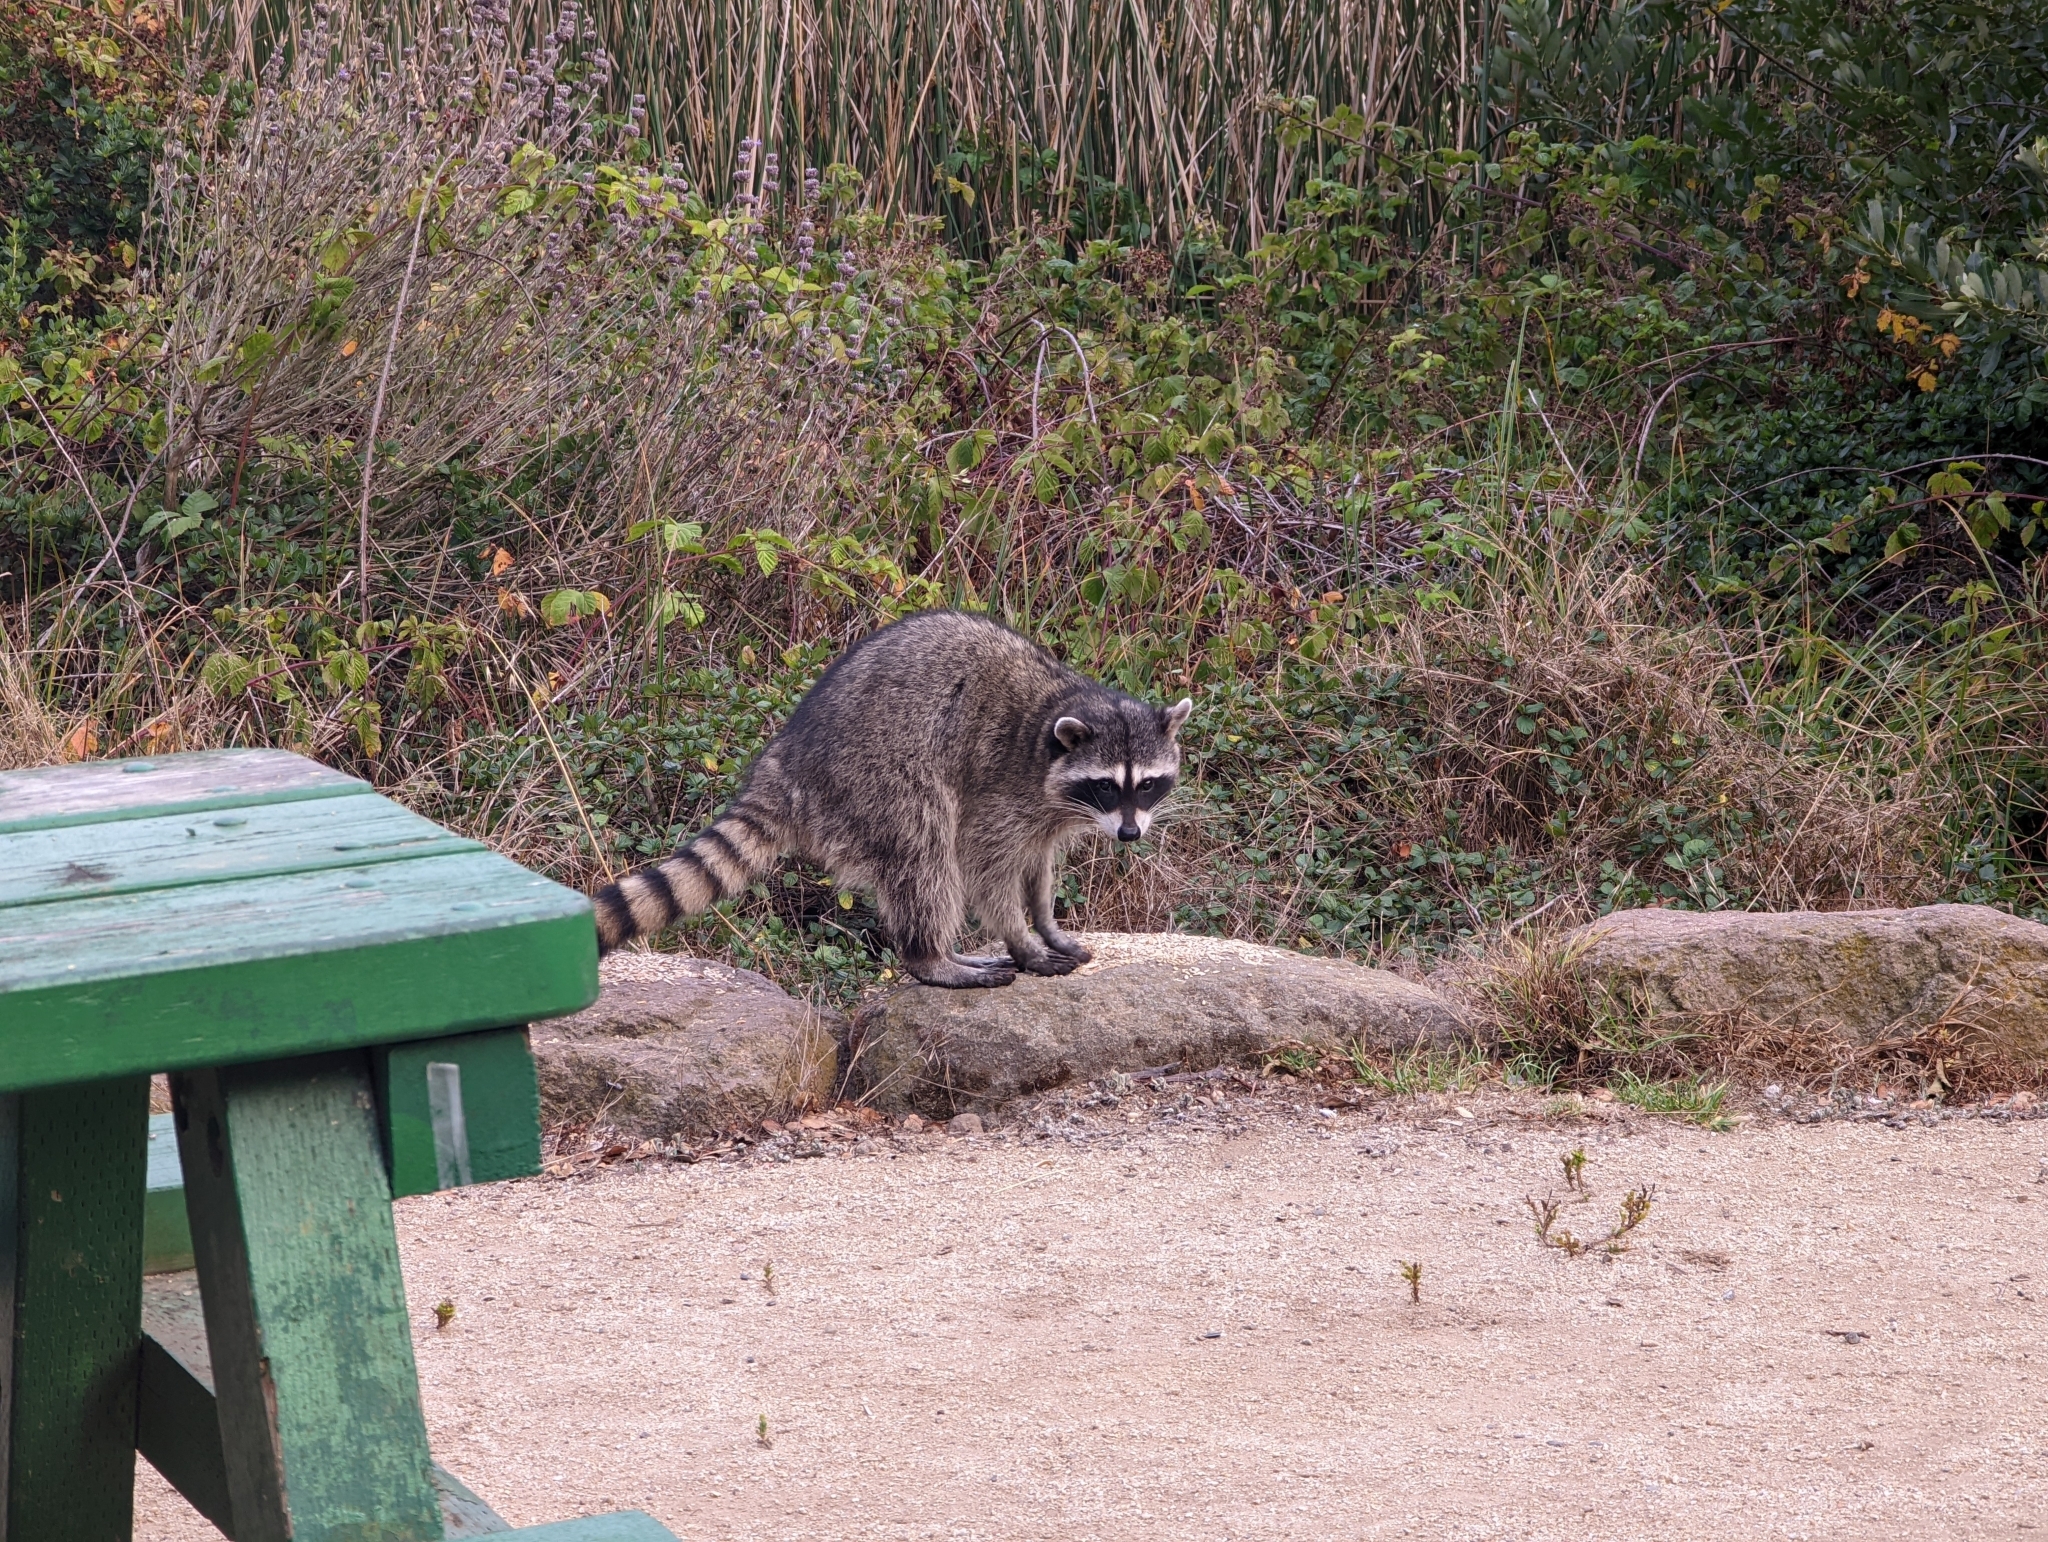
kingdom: Animalia
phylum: Chordata
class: Mammalia
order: Carnivora
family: Procyonidae
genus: Procyon
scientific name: Procyon lotor
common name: Raccoon
